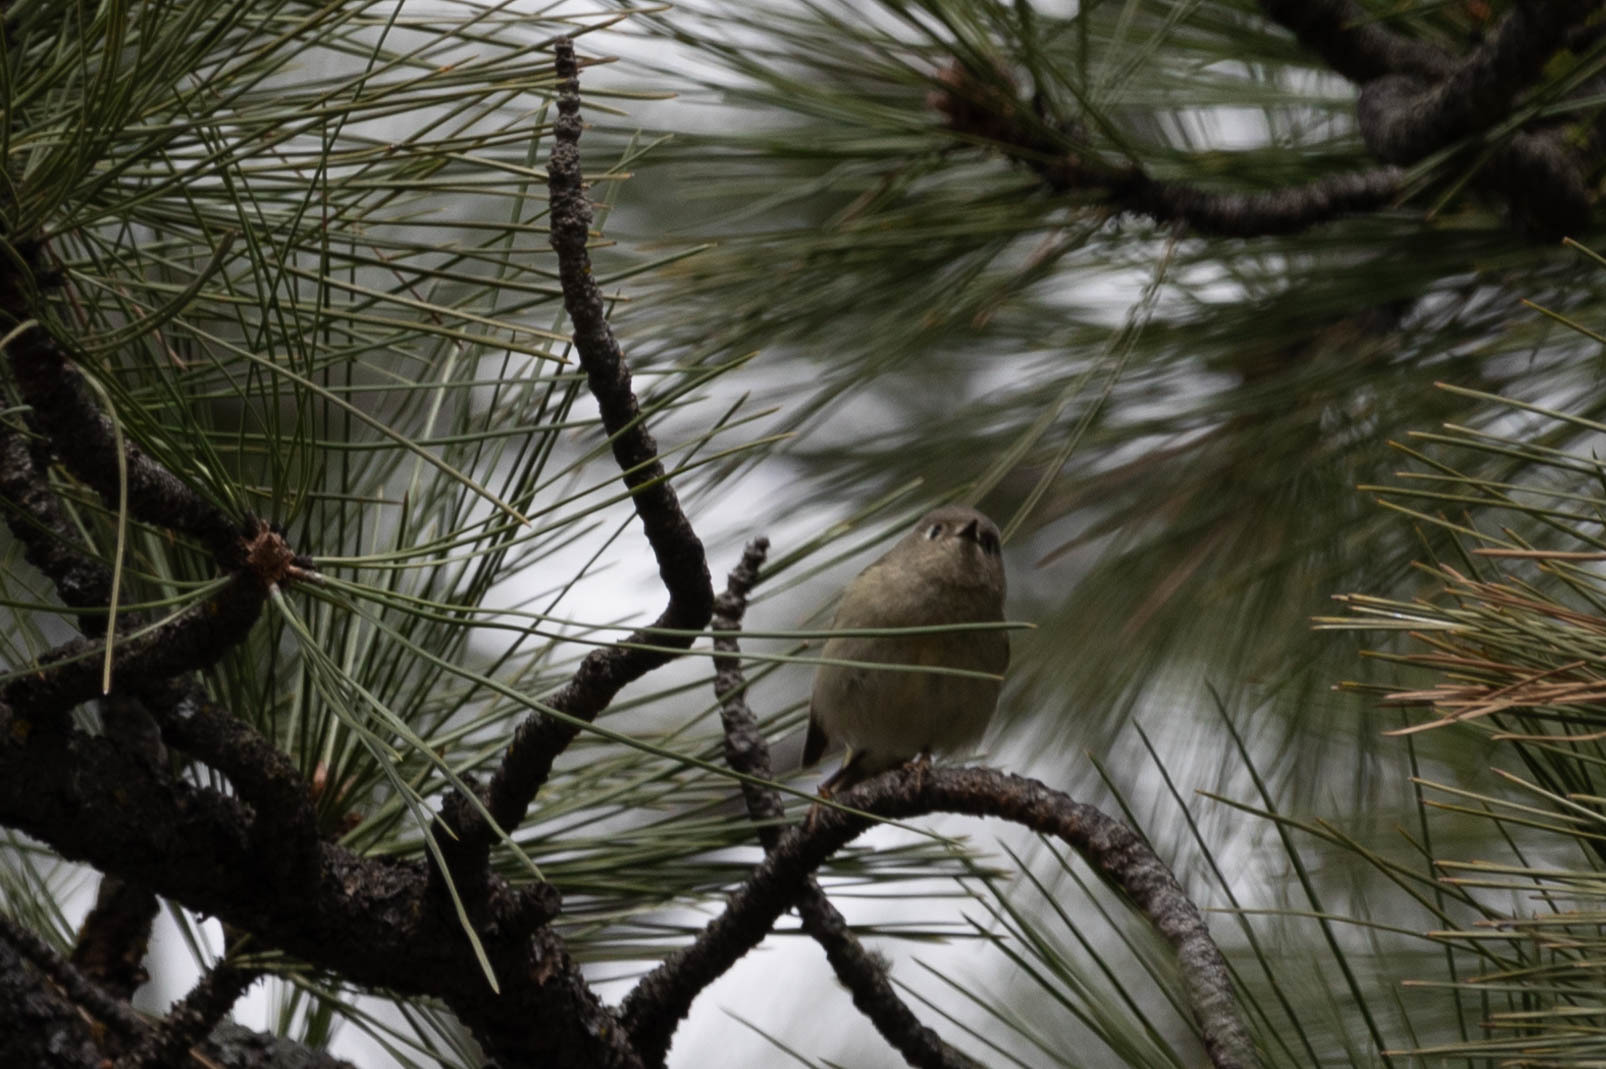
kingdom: Animalia
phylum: Chordata
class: Aves
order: Passeriformes
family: Regulidae
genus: Regulus
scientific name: Regulus calendula
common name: Ruby-crowned kinglet
